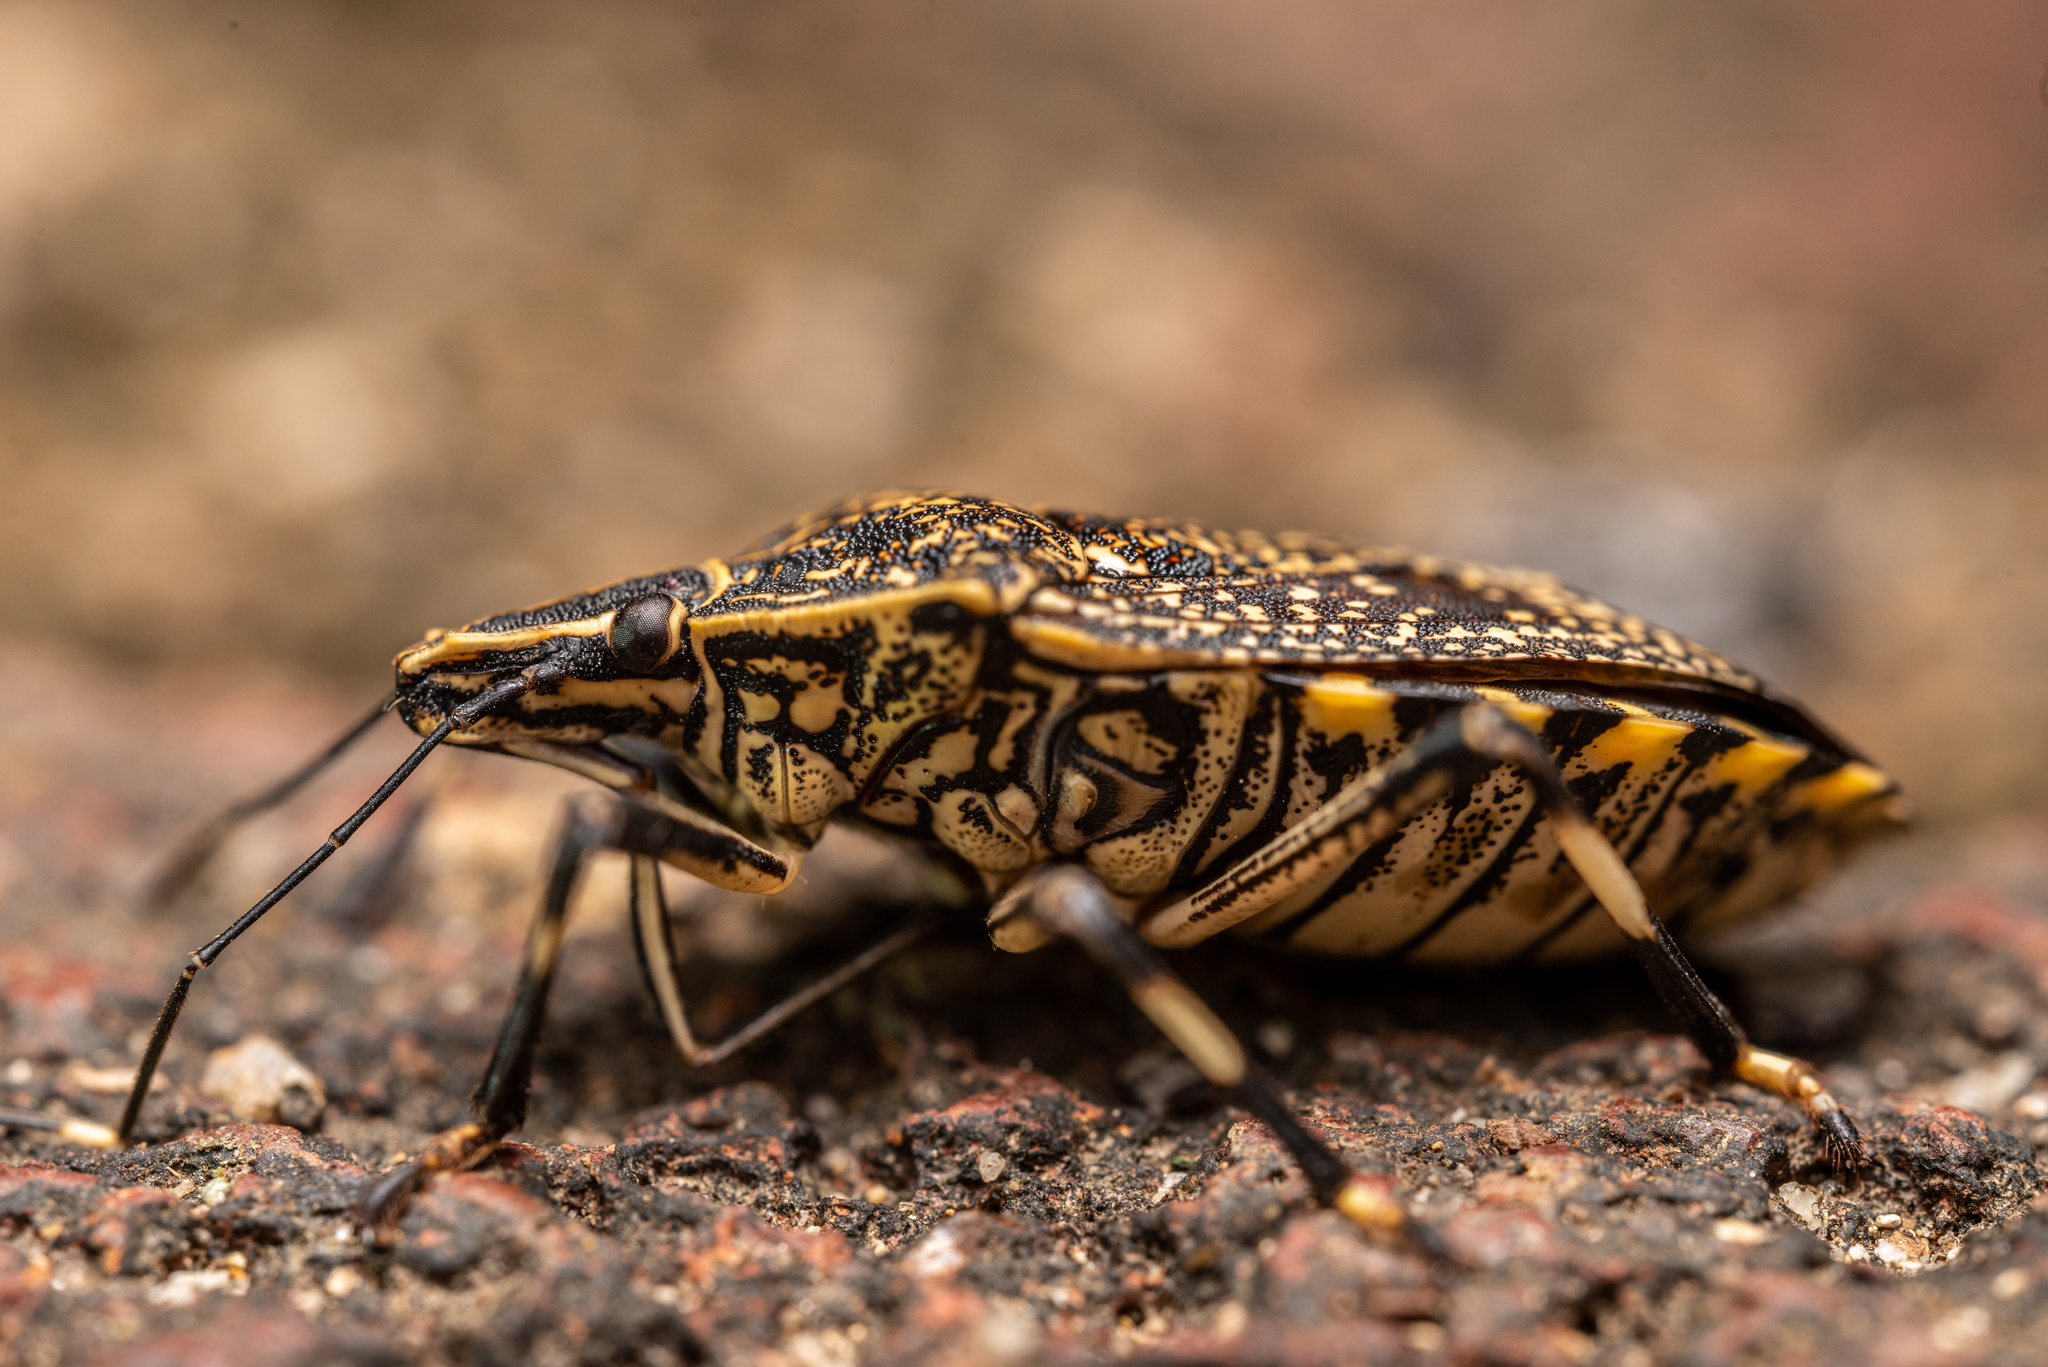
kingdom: Animalia
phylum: Arthropoda
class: Insecta
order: Hemiptera
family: Pentatomidae
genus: Erthesina
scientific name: Erthesina fullo
